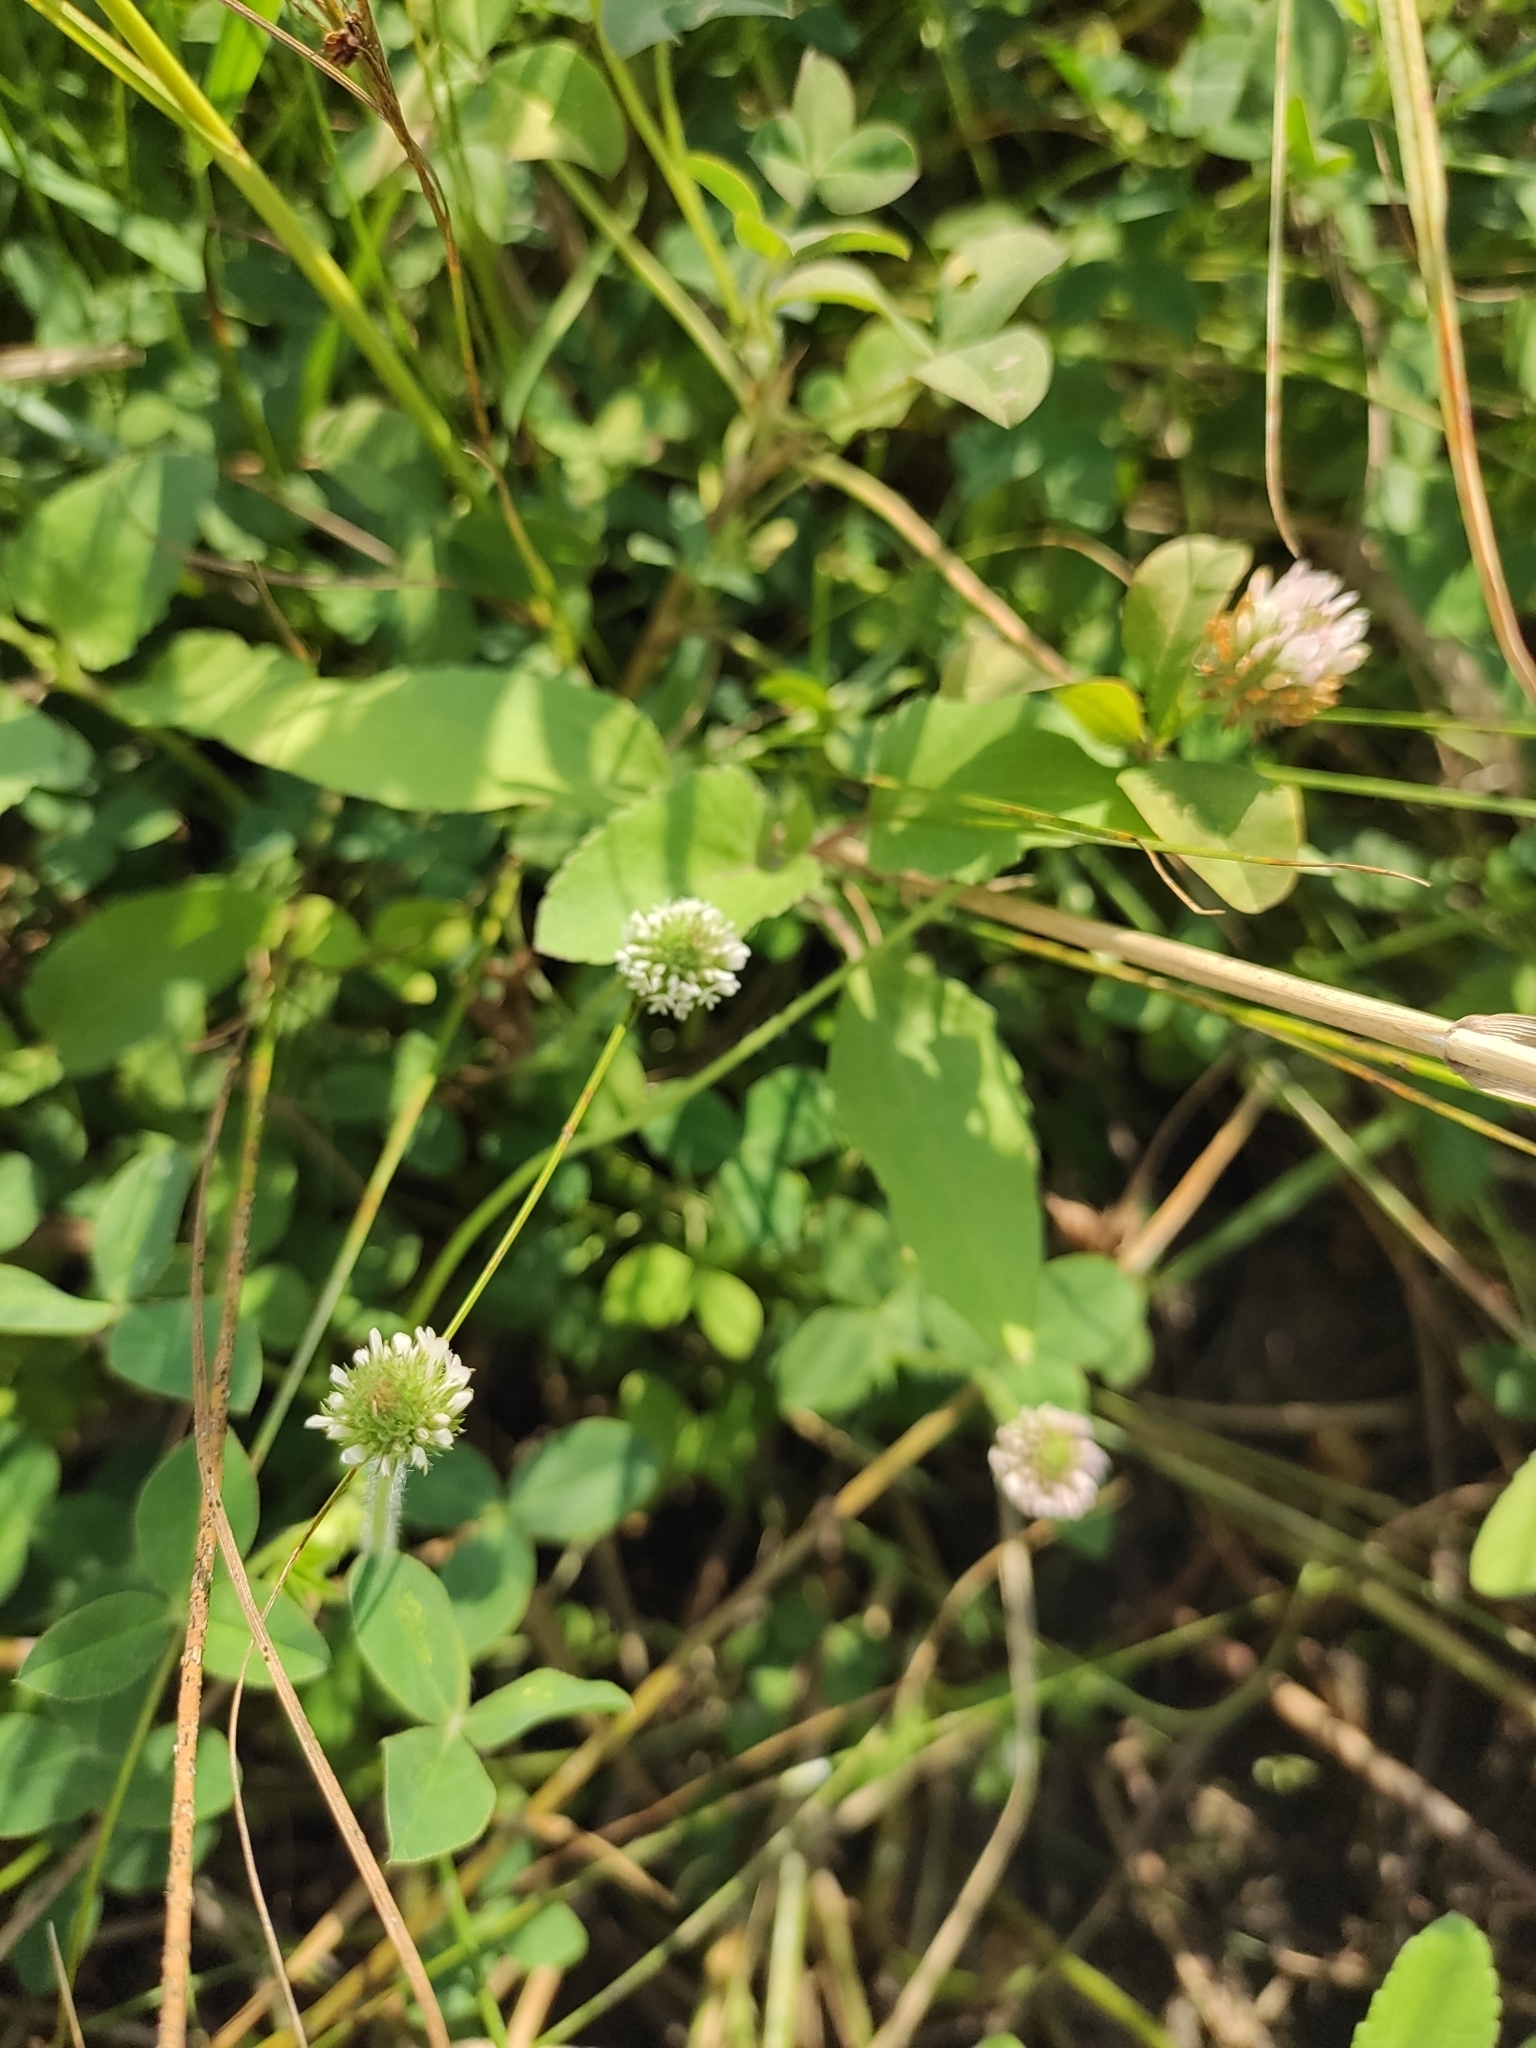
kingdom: Plantae
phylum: Tracheophyta
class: Magnoliopsida
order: Fabales
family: Fabaceae
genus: Trifolium
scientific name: Trifolium fragiferum
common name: Strawberry clover
